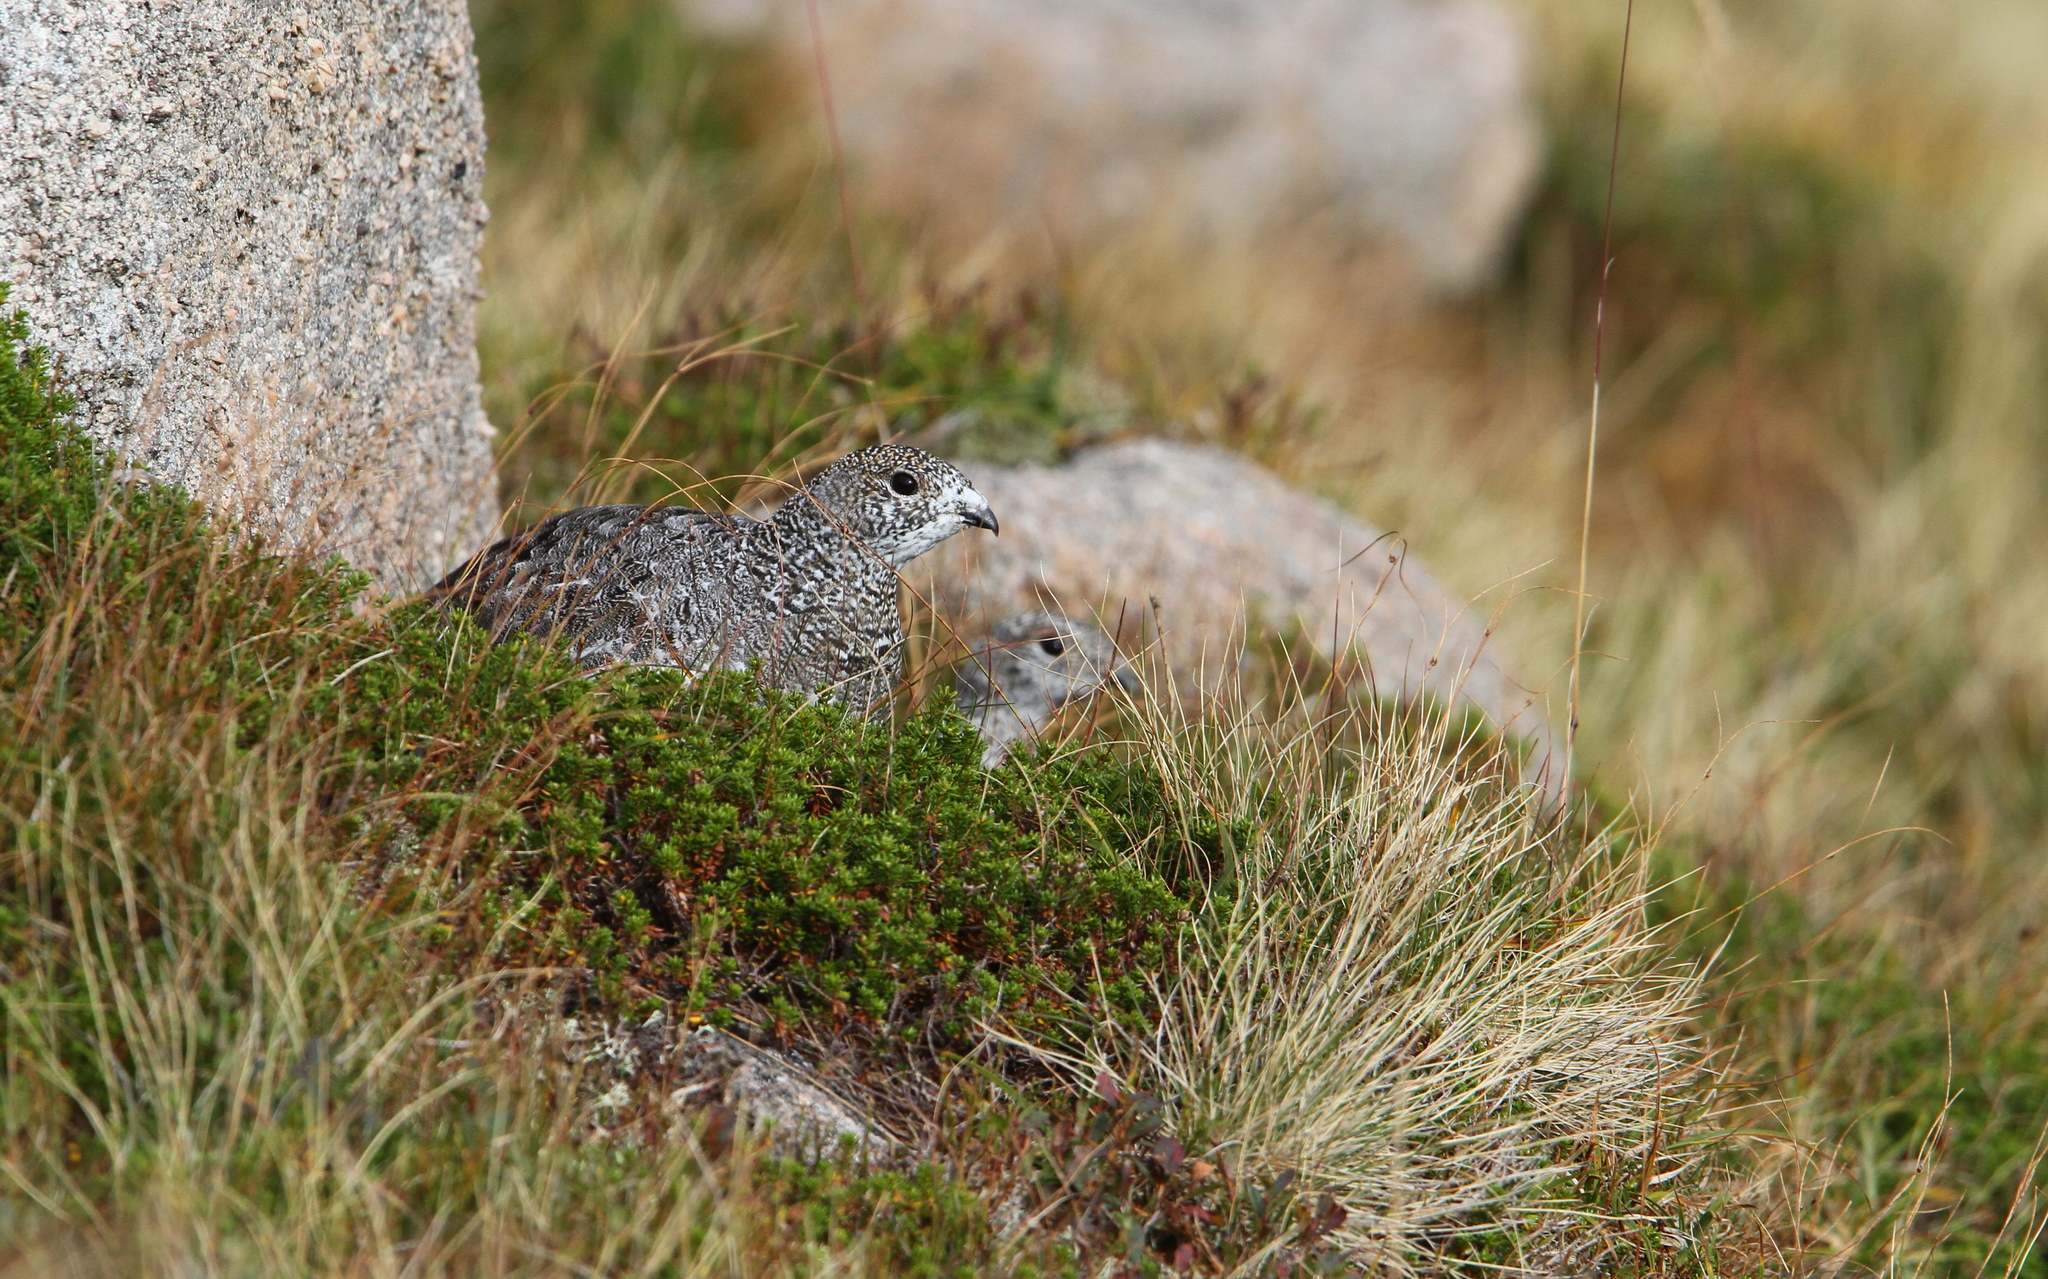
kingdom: Animalia
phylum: Chordata
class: Aves
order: Galliformes
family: Phasianidae
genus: Lagopus
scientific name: Lagopus muta
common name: Rock ptarmigan
